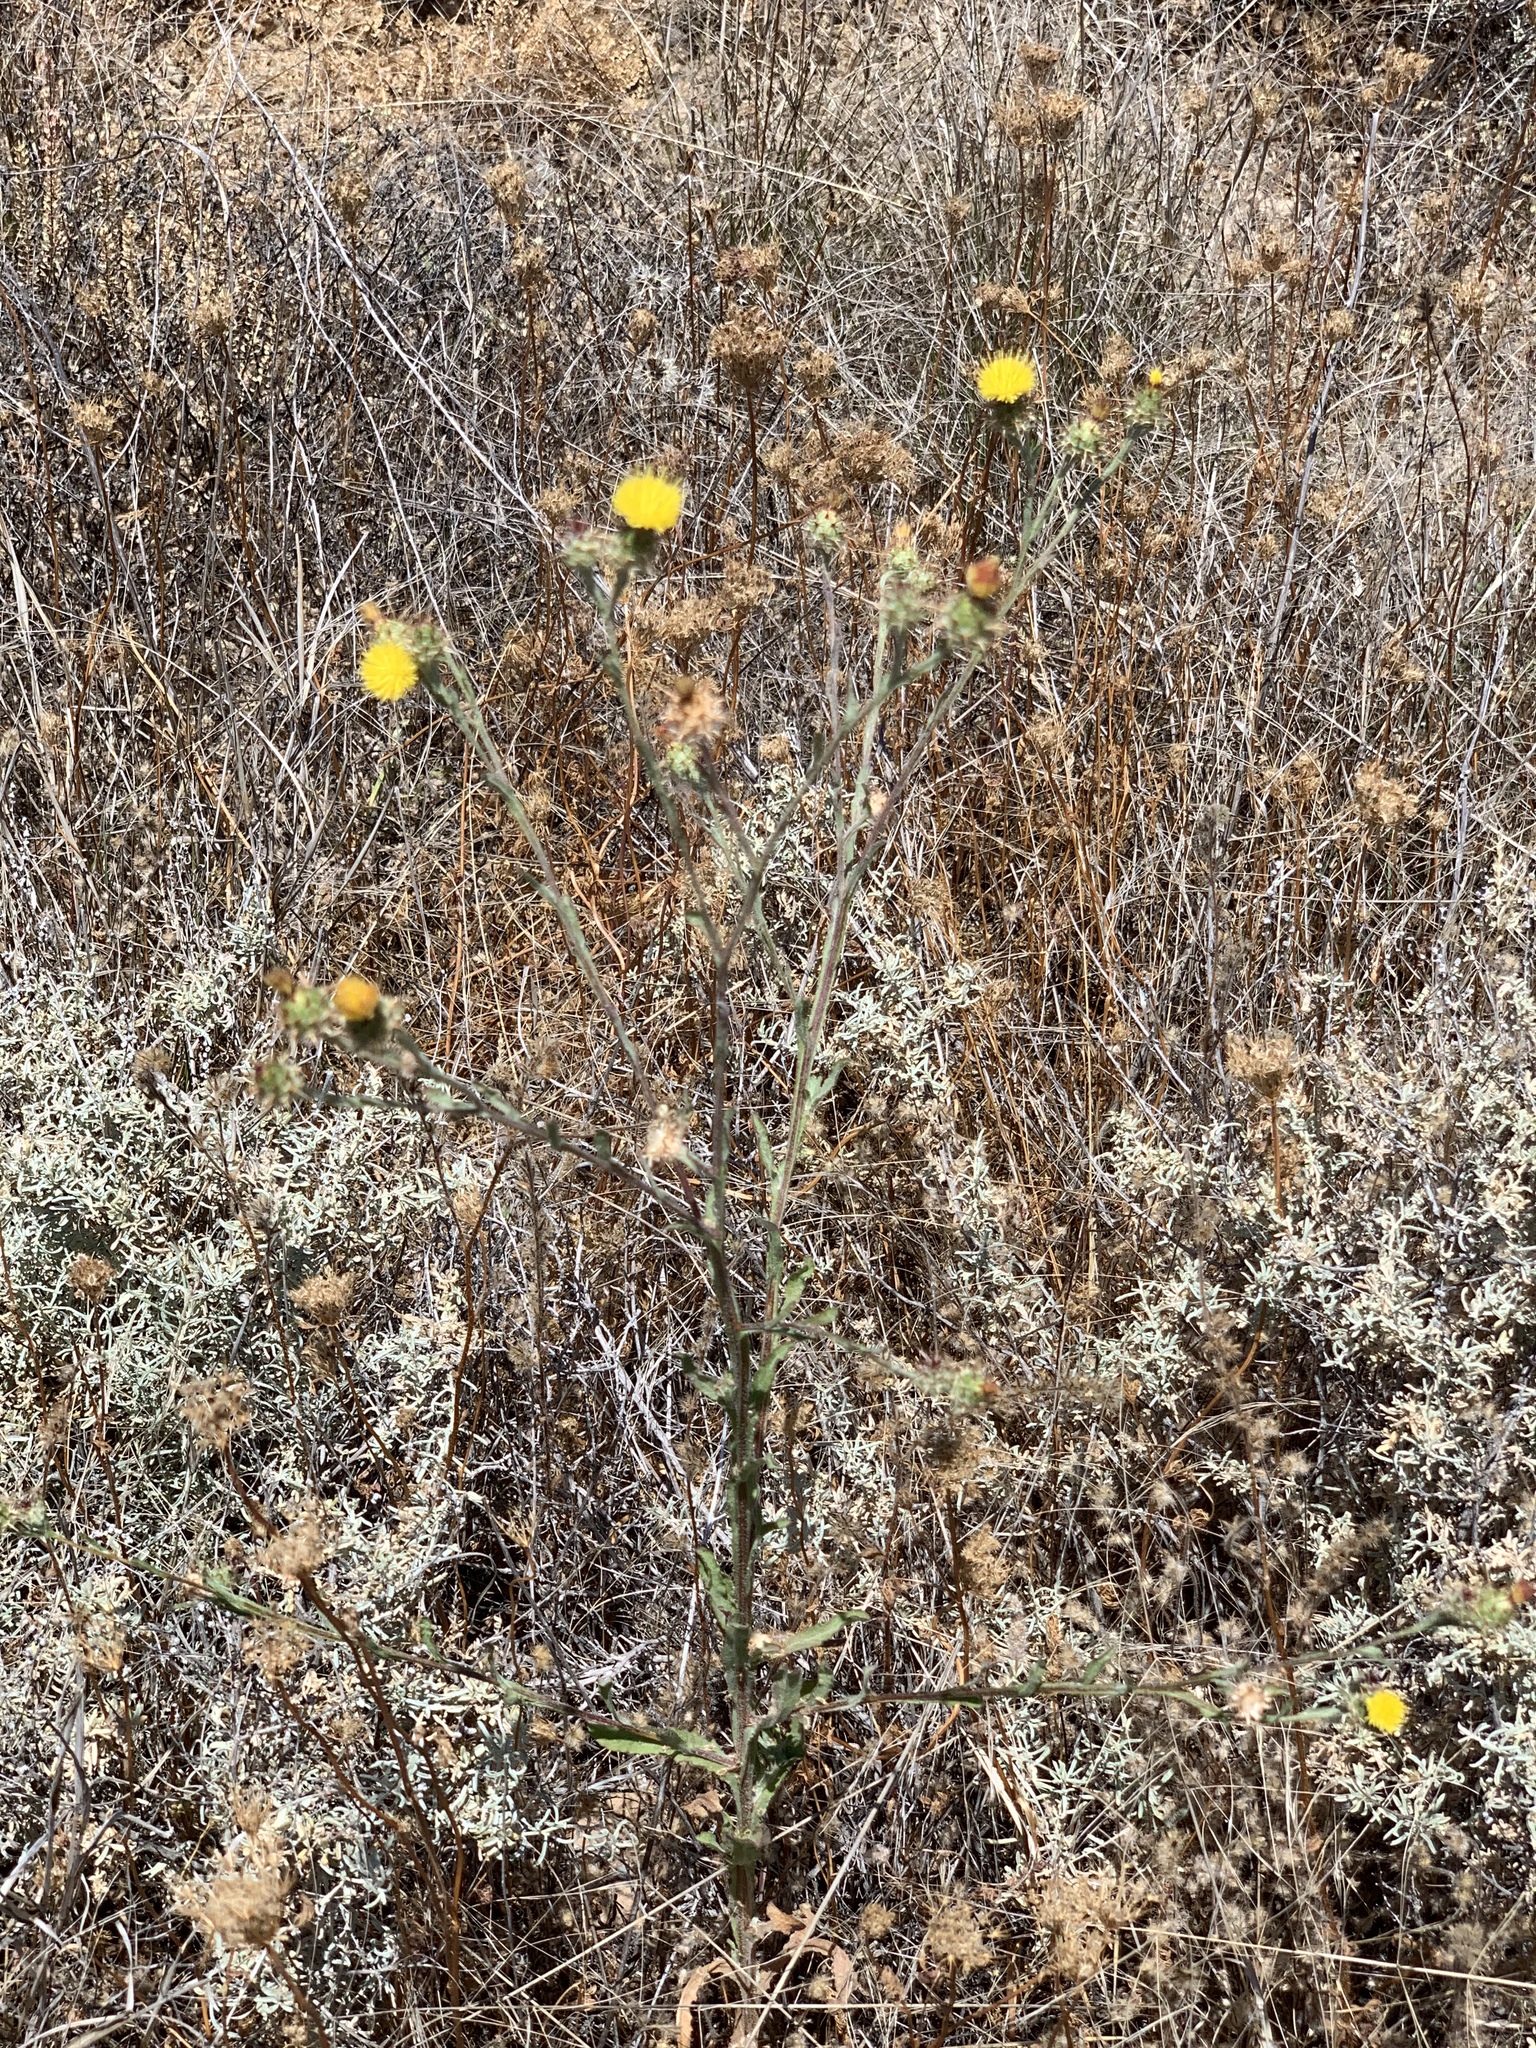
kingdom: Plantae
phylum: Tracheophyta
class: Magnoliopsida
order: Asterales
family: Asteraceae
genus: Centaurea
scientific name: Centaurea melitensis
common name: Maltese star-thistle
